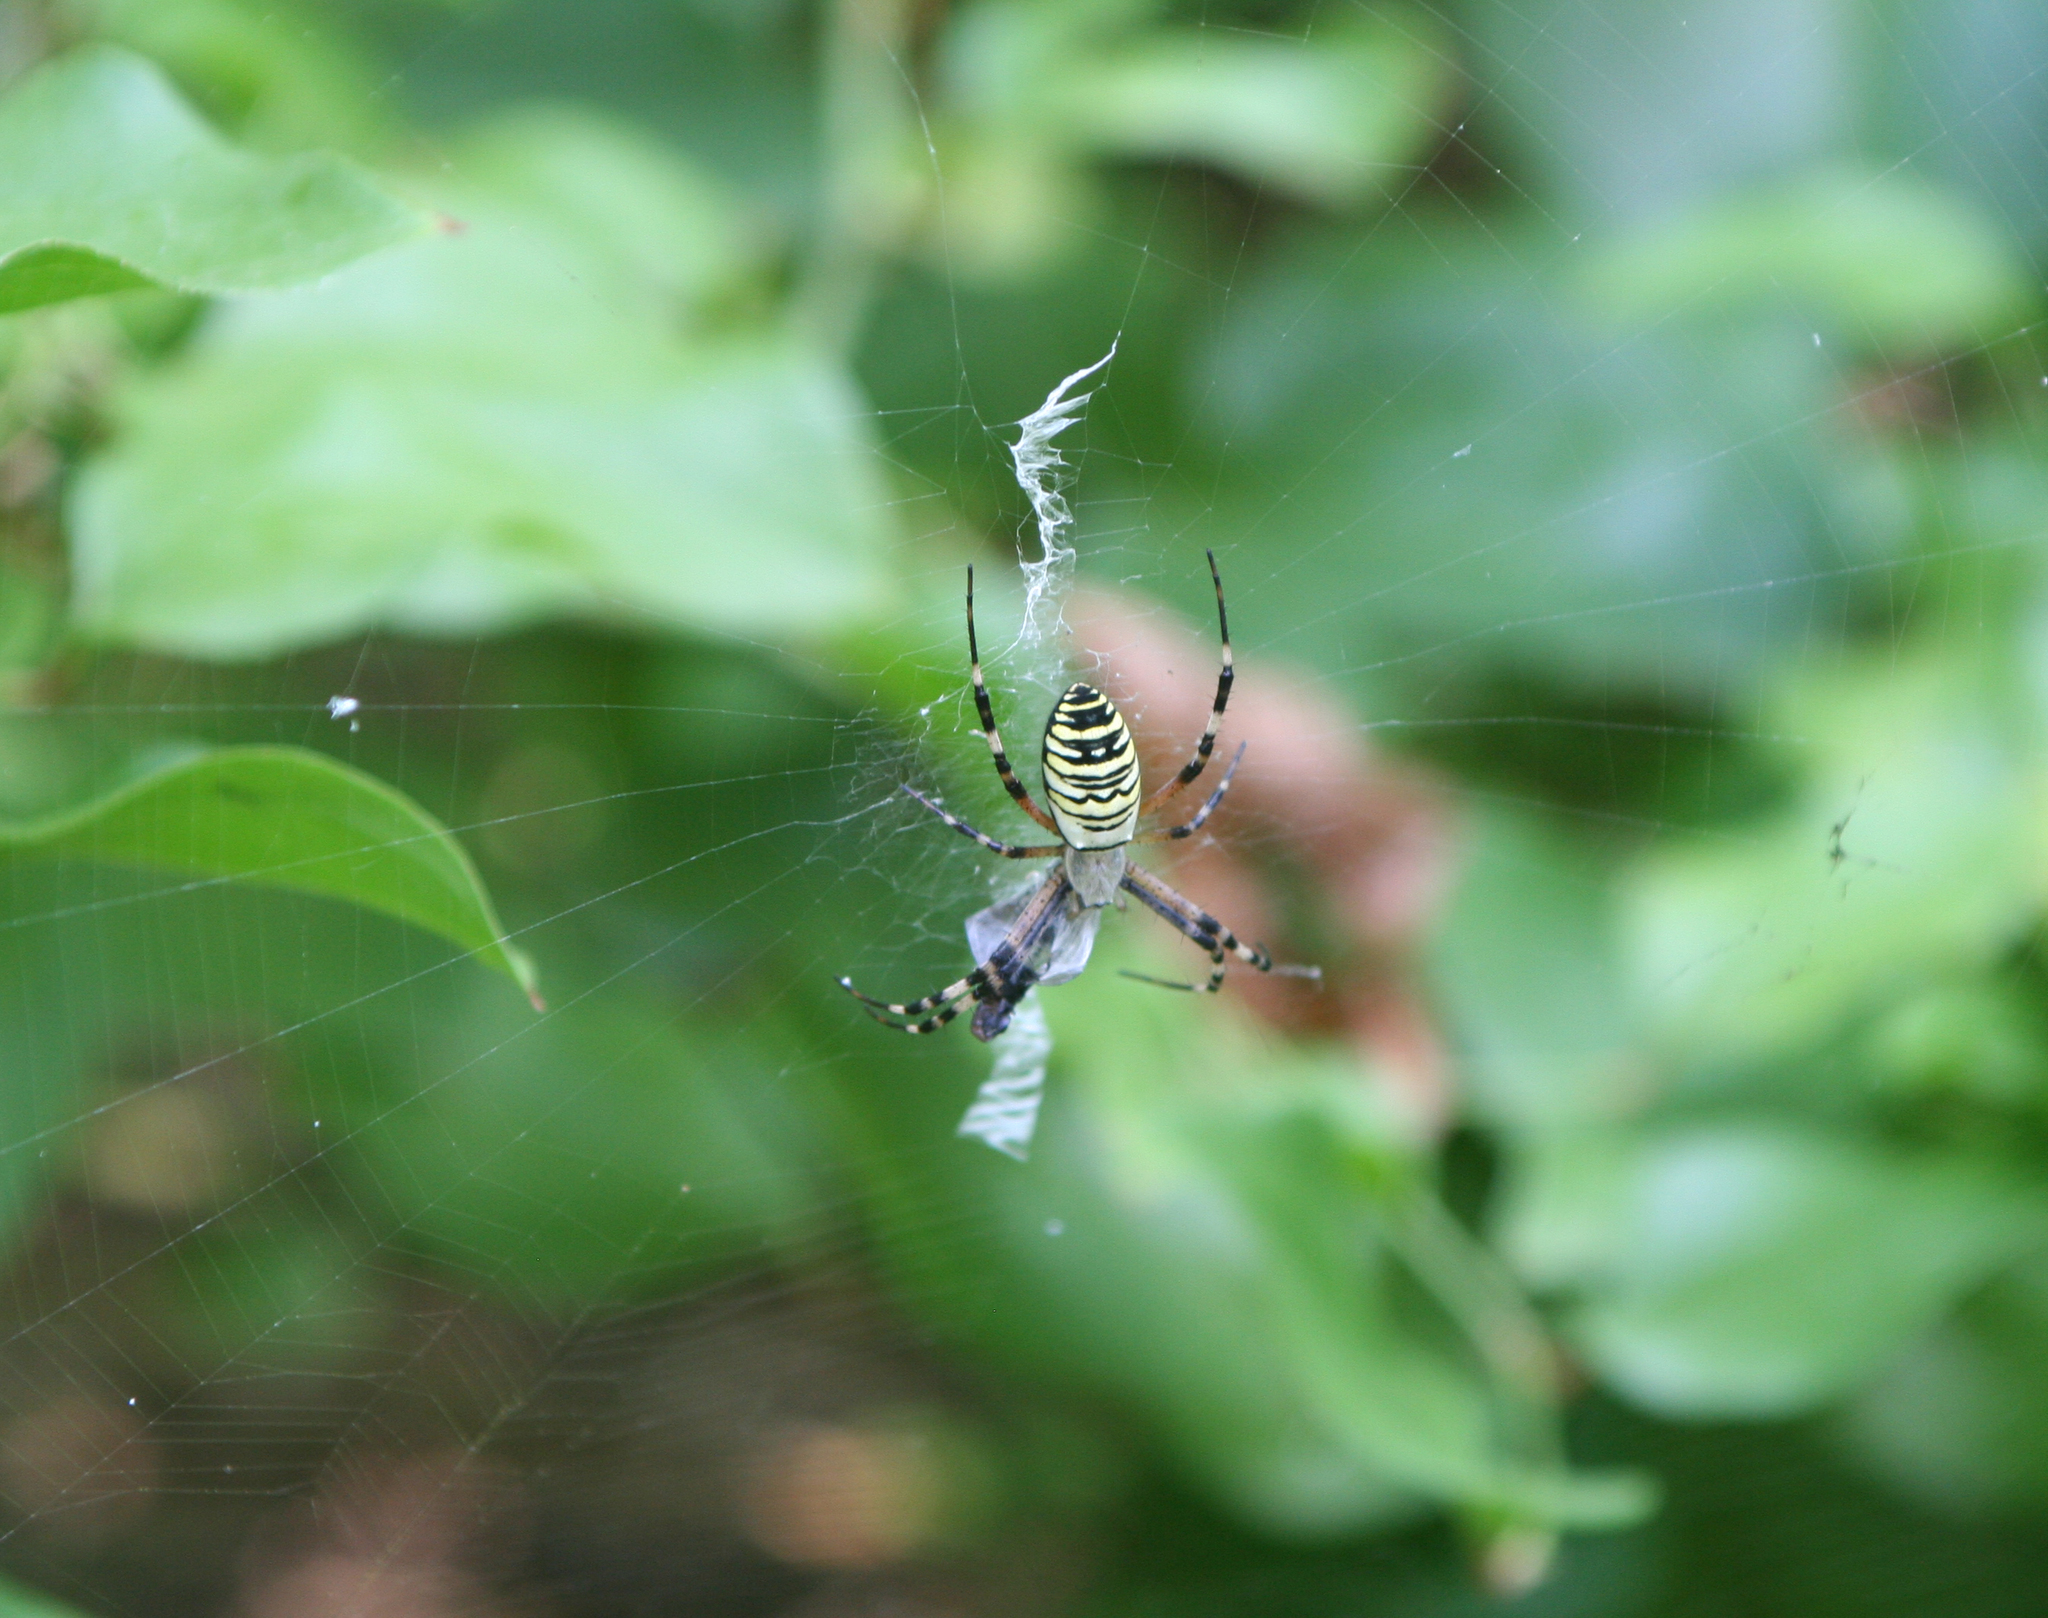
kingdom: Animalia
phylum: Arthropoda
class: Arachnida
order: Araneae
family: Araneidae
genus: Argiope
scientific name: Argiope bruennichi
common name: Wasp spider
